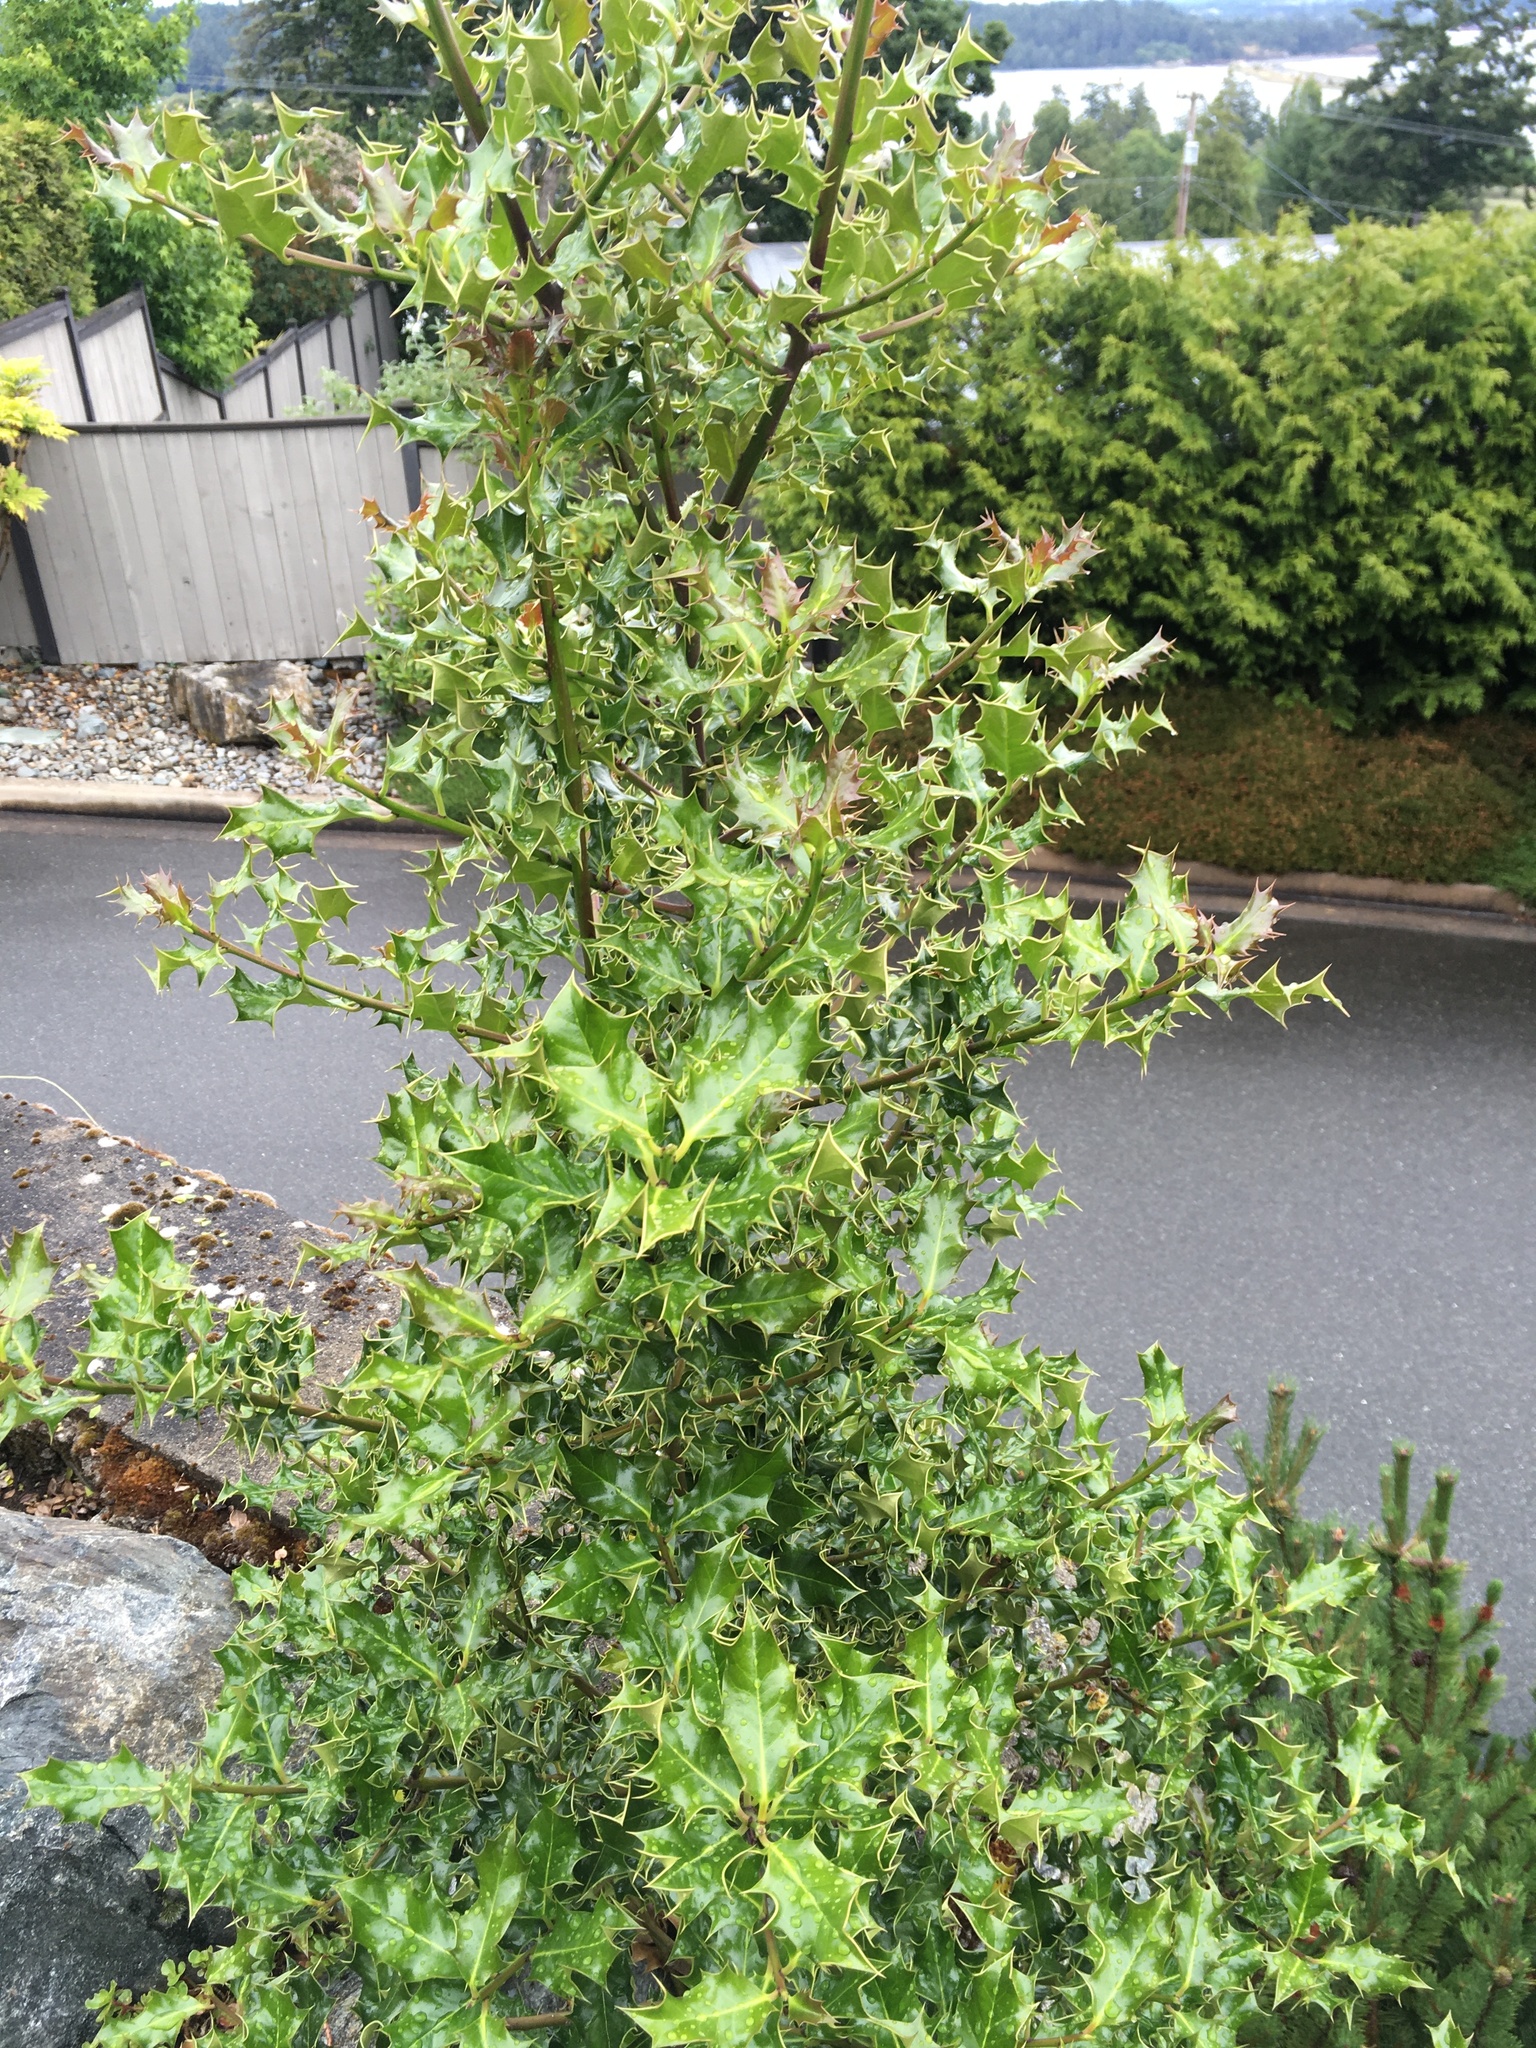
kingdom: Plantae
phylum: Tracheophyta
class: Magnoliopsida
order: Aquifoliales
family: Aquifoliaceae
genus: Ilex
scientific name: Ilex aquifolium
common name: English holly
